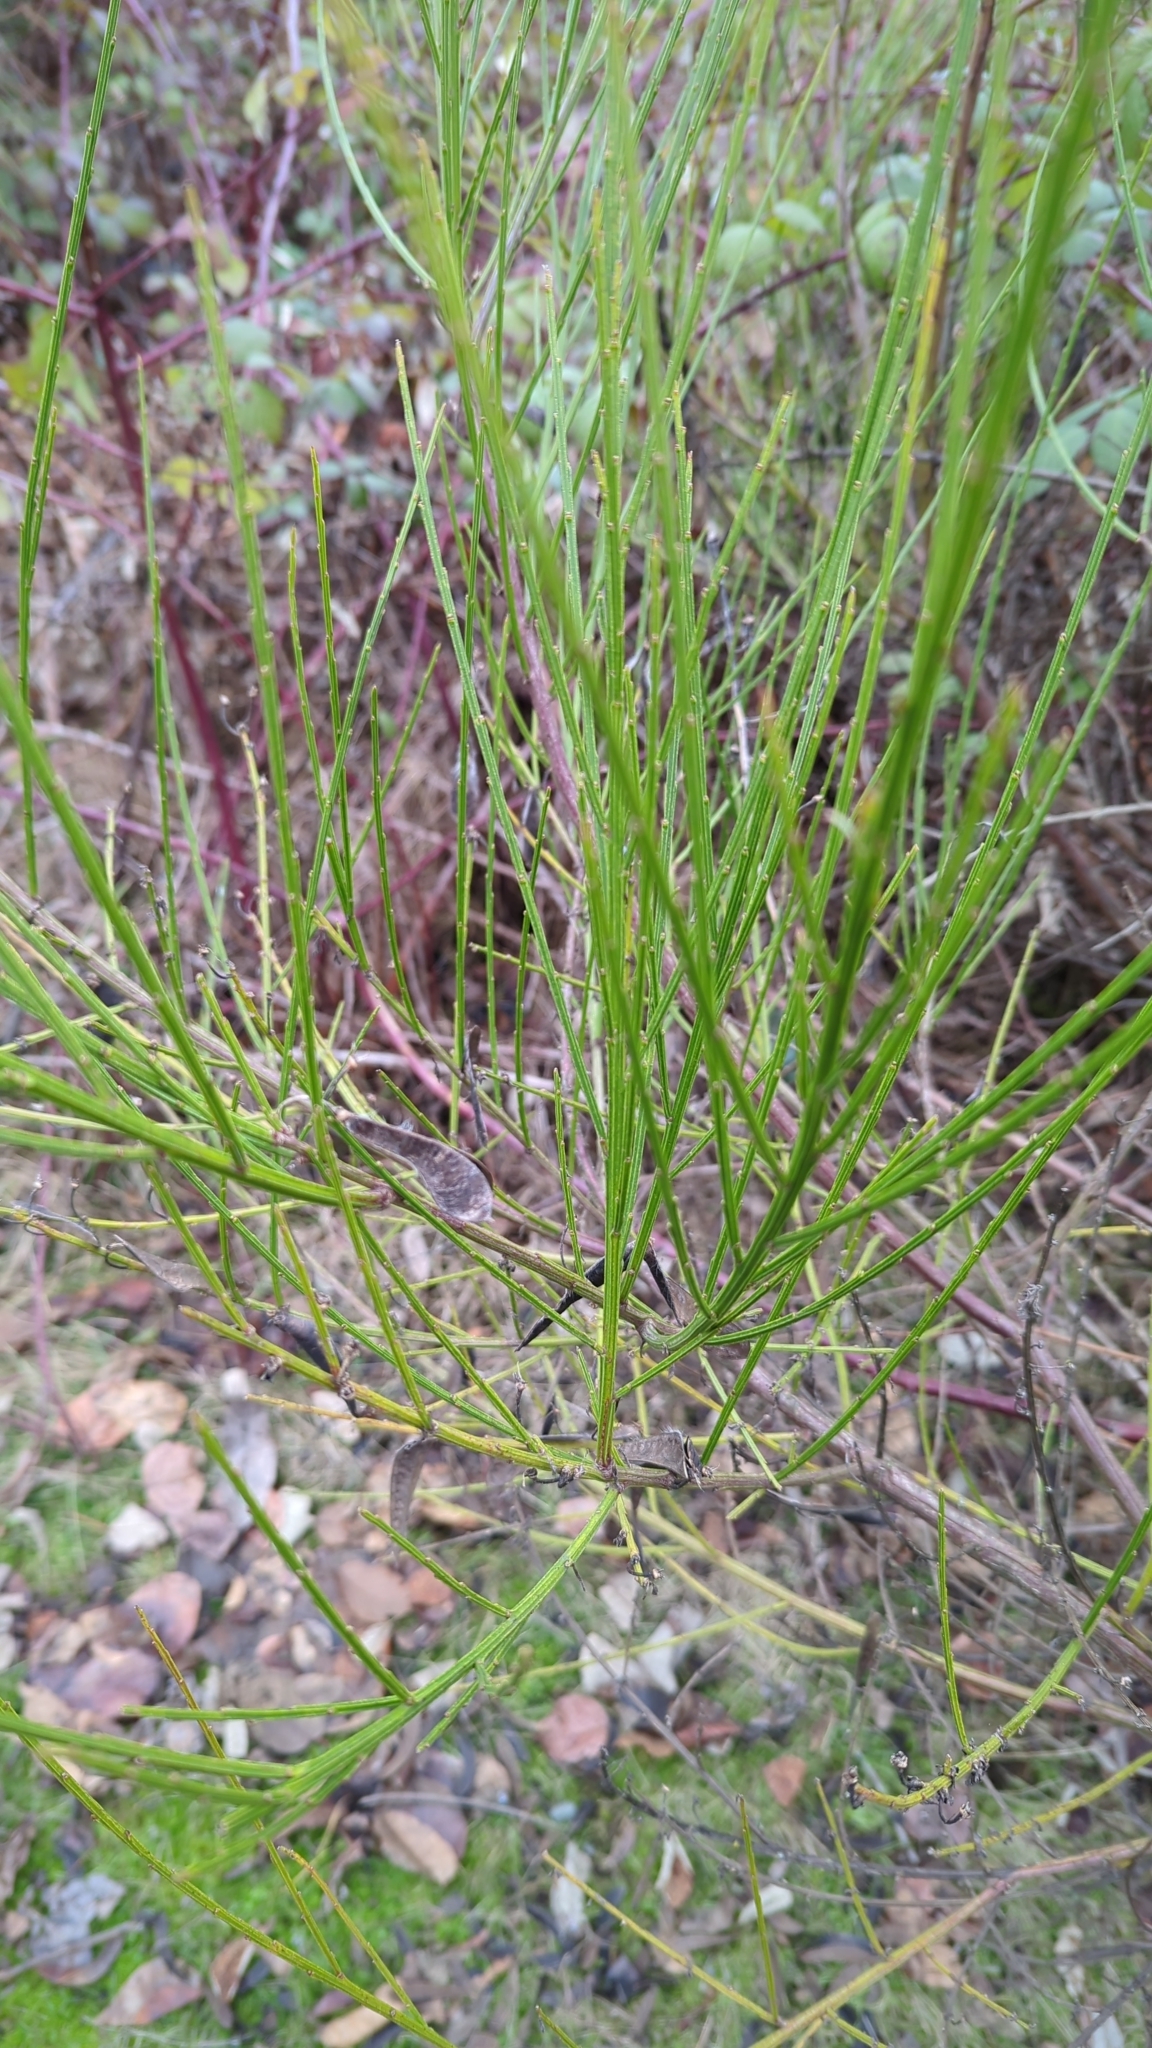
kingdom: Plantae
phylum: Tracheophyta
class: Magnoliopsida
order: Fabales
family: Fabaceae
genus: Cytisus
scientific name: Cytisus scoparius
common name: Scotch broom
